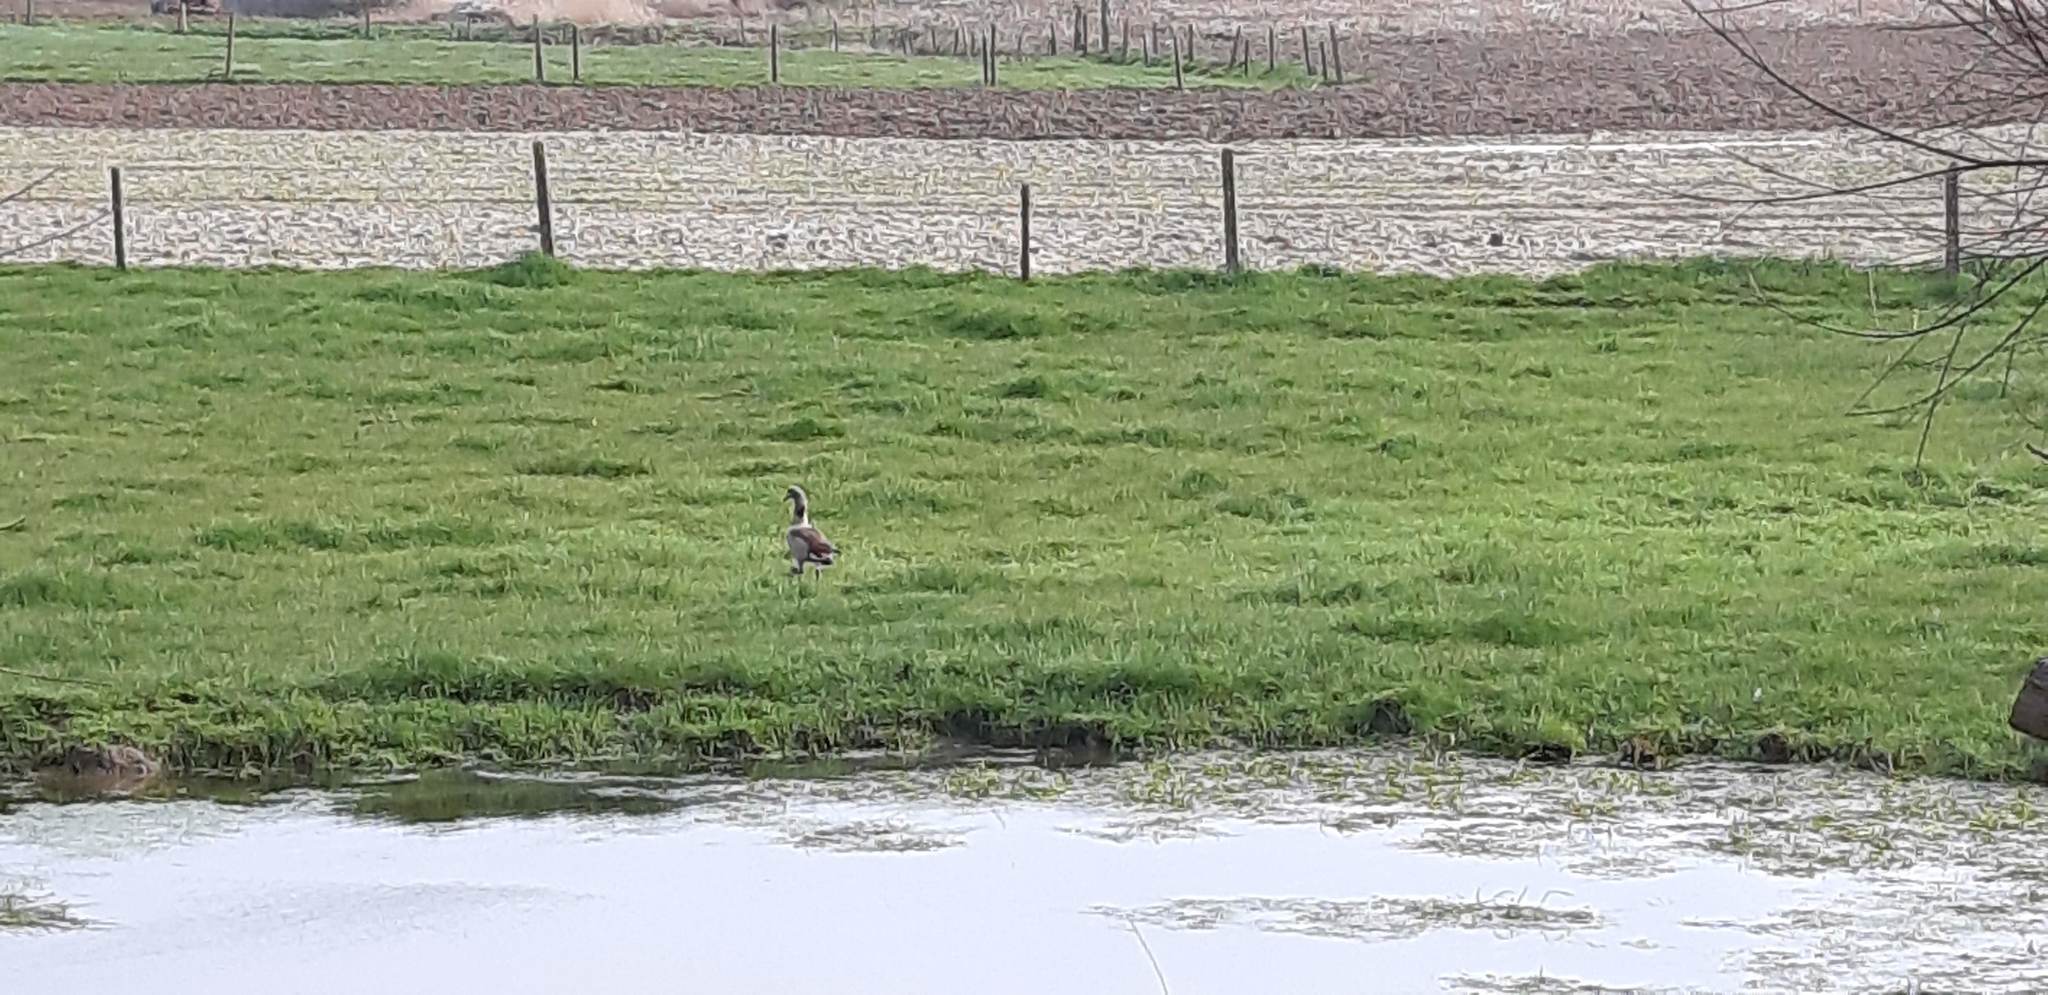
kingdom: Animalia
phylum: Chordata
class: Aves
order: Anseriformes
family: Anatidae
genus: Alopochen
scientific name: Alopochen aegyptiaca
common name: Egyptian goose
